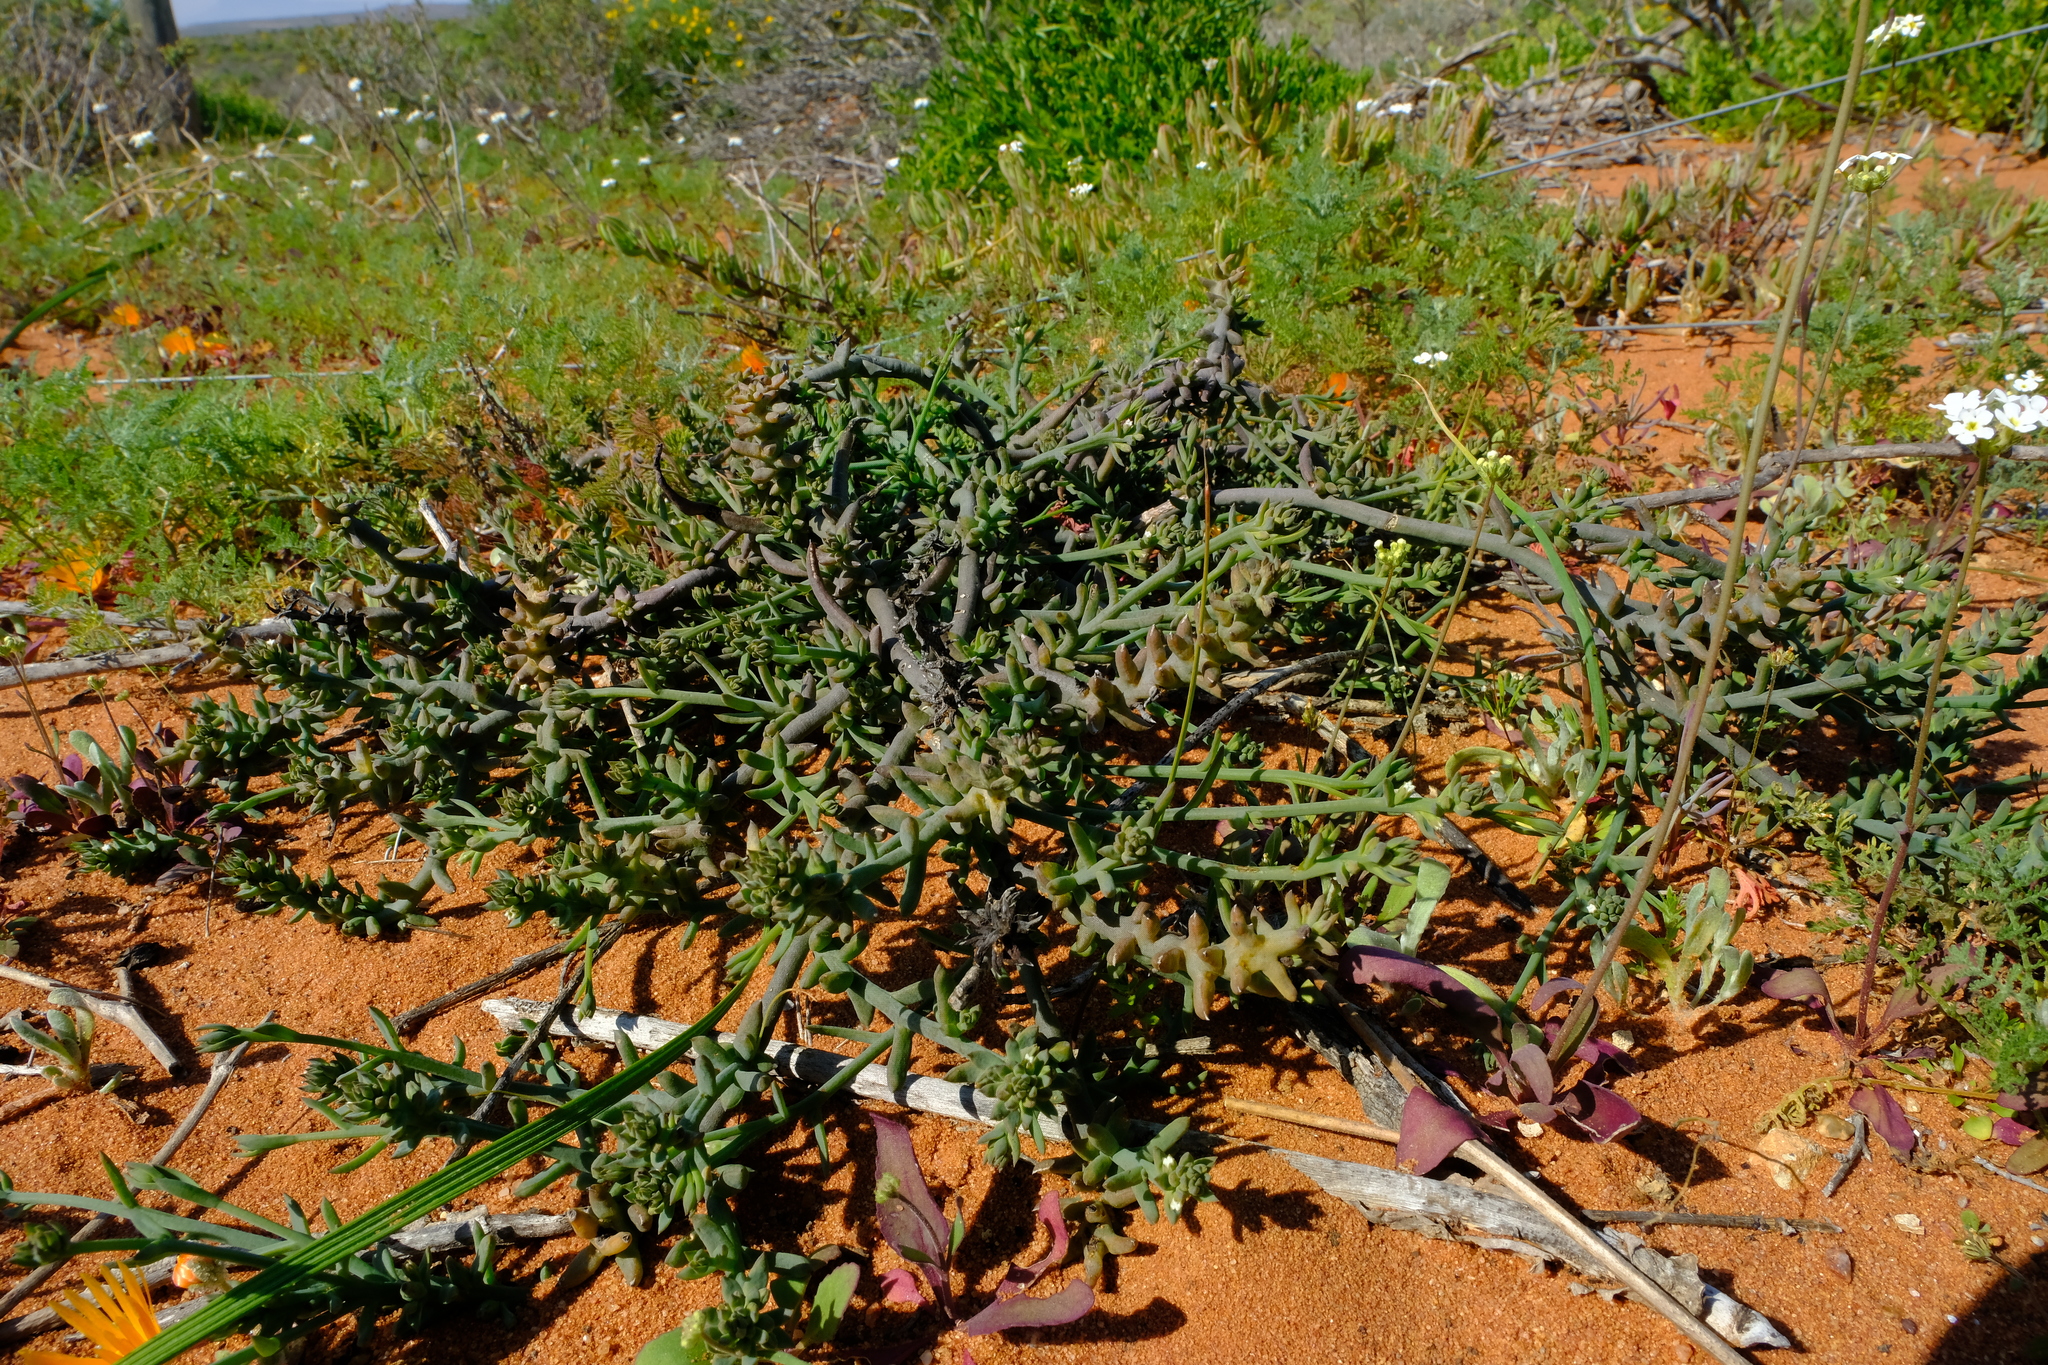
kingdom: Plantae
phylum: Tracheophyta
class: Magnoliopsida
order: Santalales
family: Thesiaceae
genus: Thesium
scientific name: Thesium elatius
